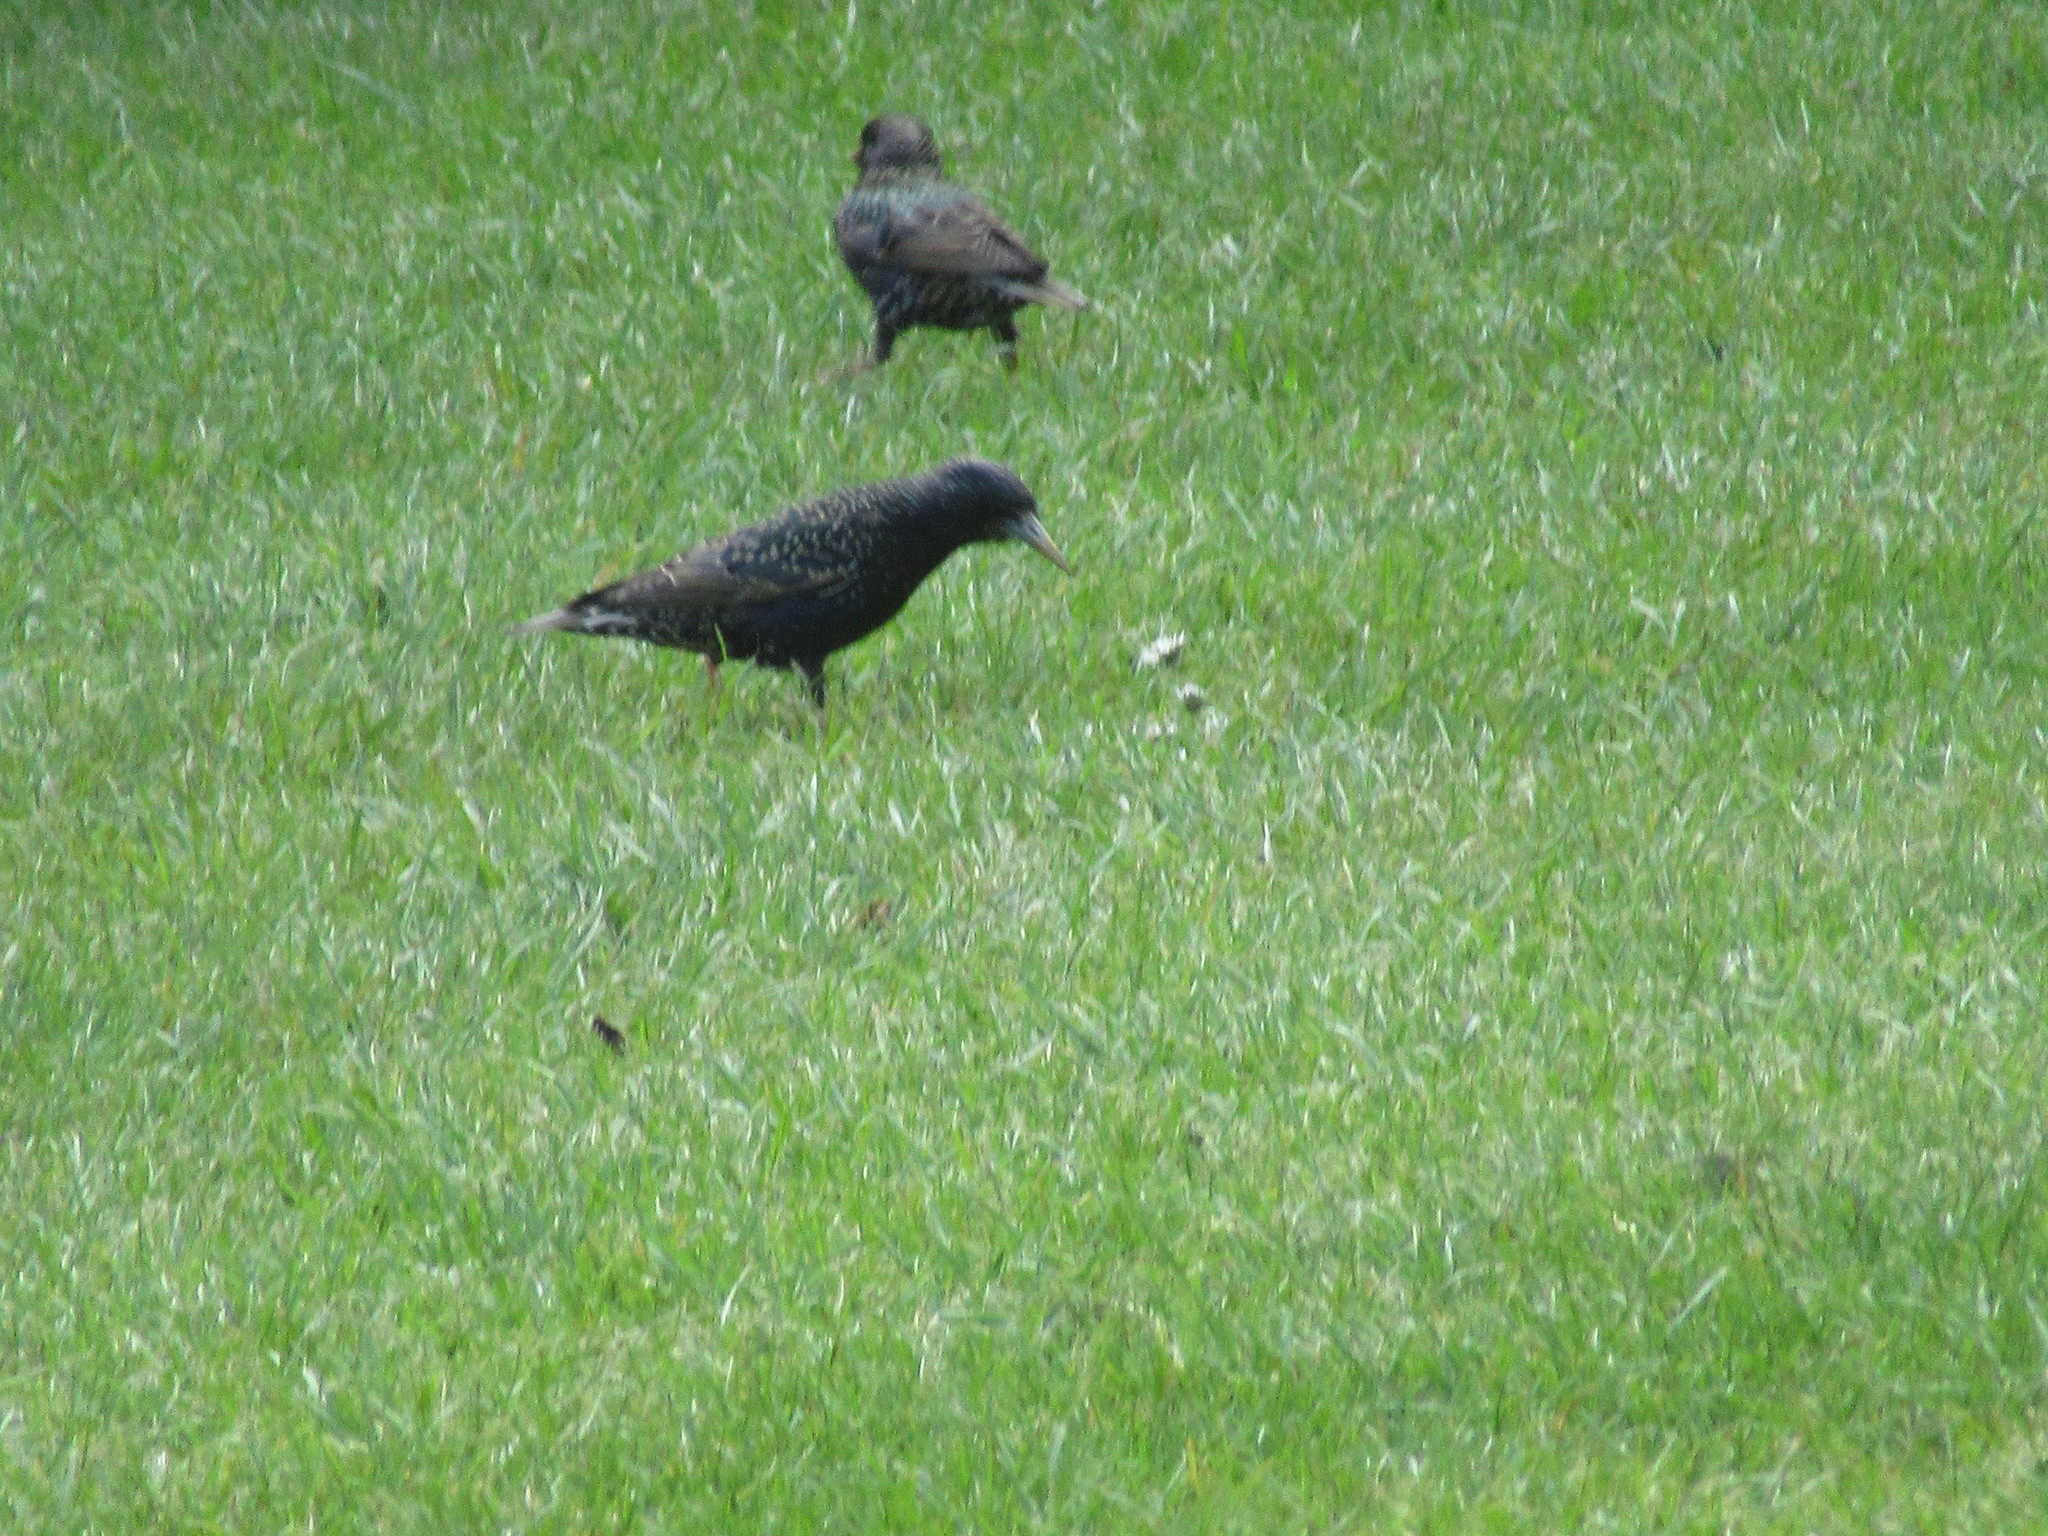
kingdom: Animalia
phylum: Chordata
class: Aves
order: Passeriformes
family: Sturnidae
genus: Sturnus
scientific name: Sturnus vulgaris
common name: Common starling
